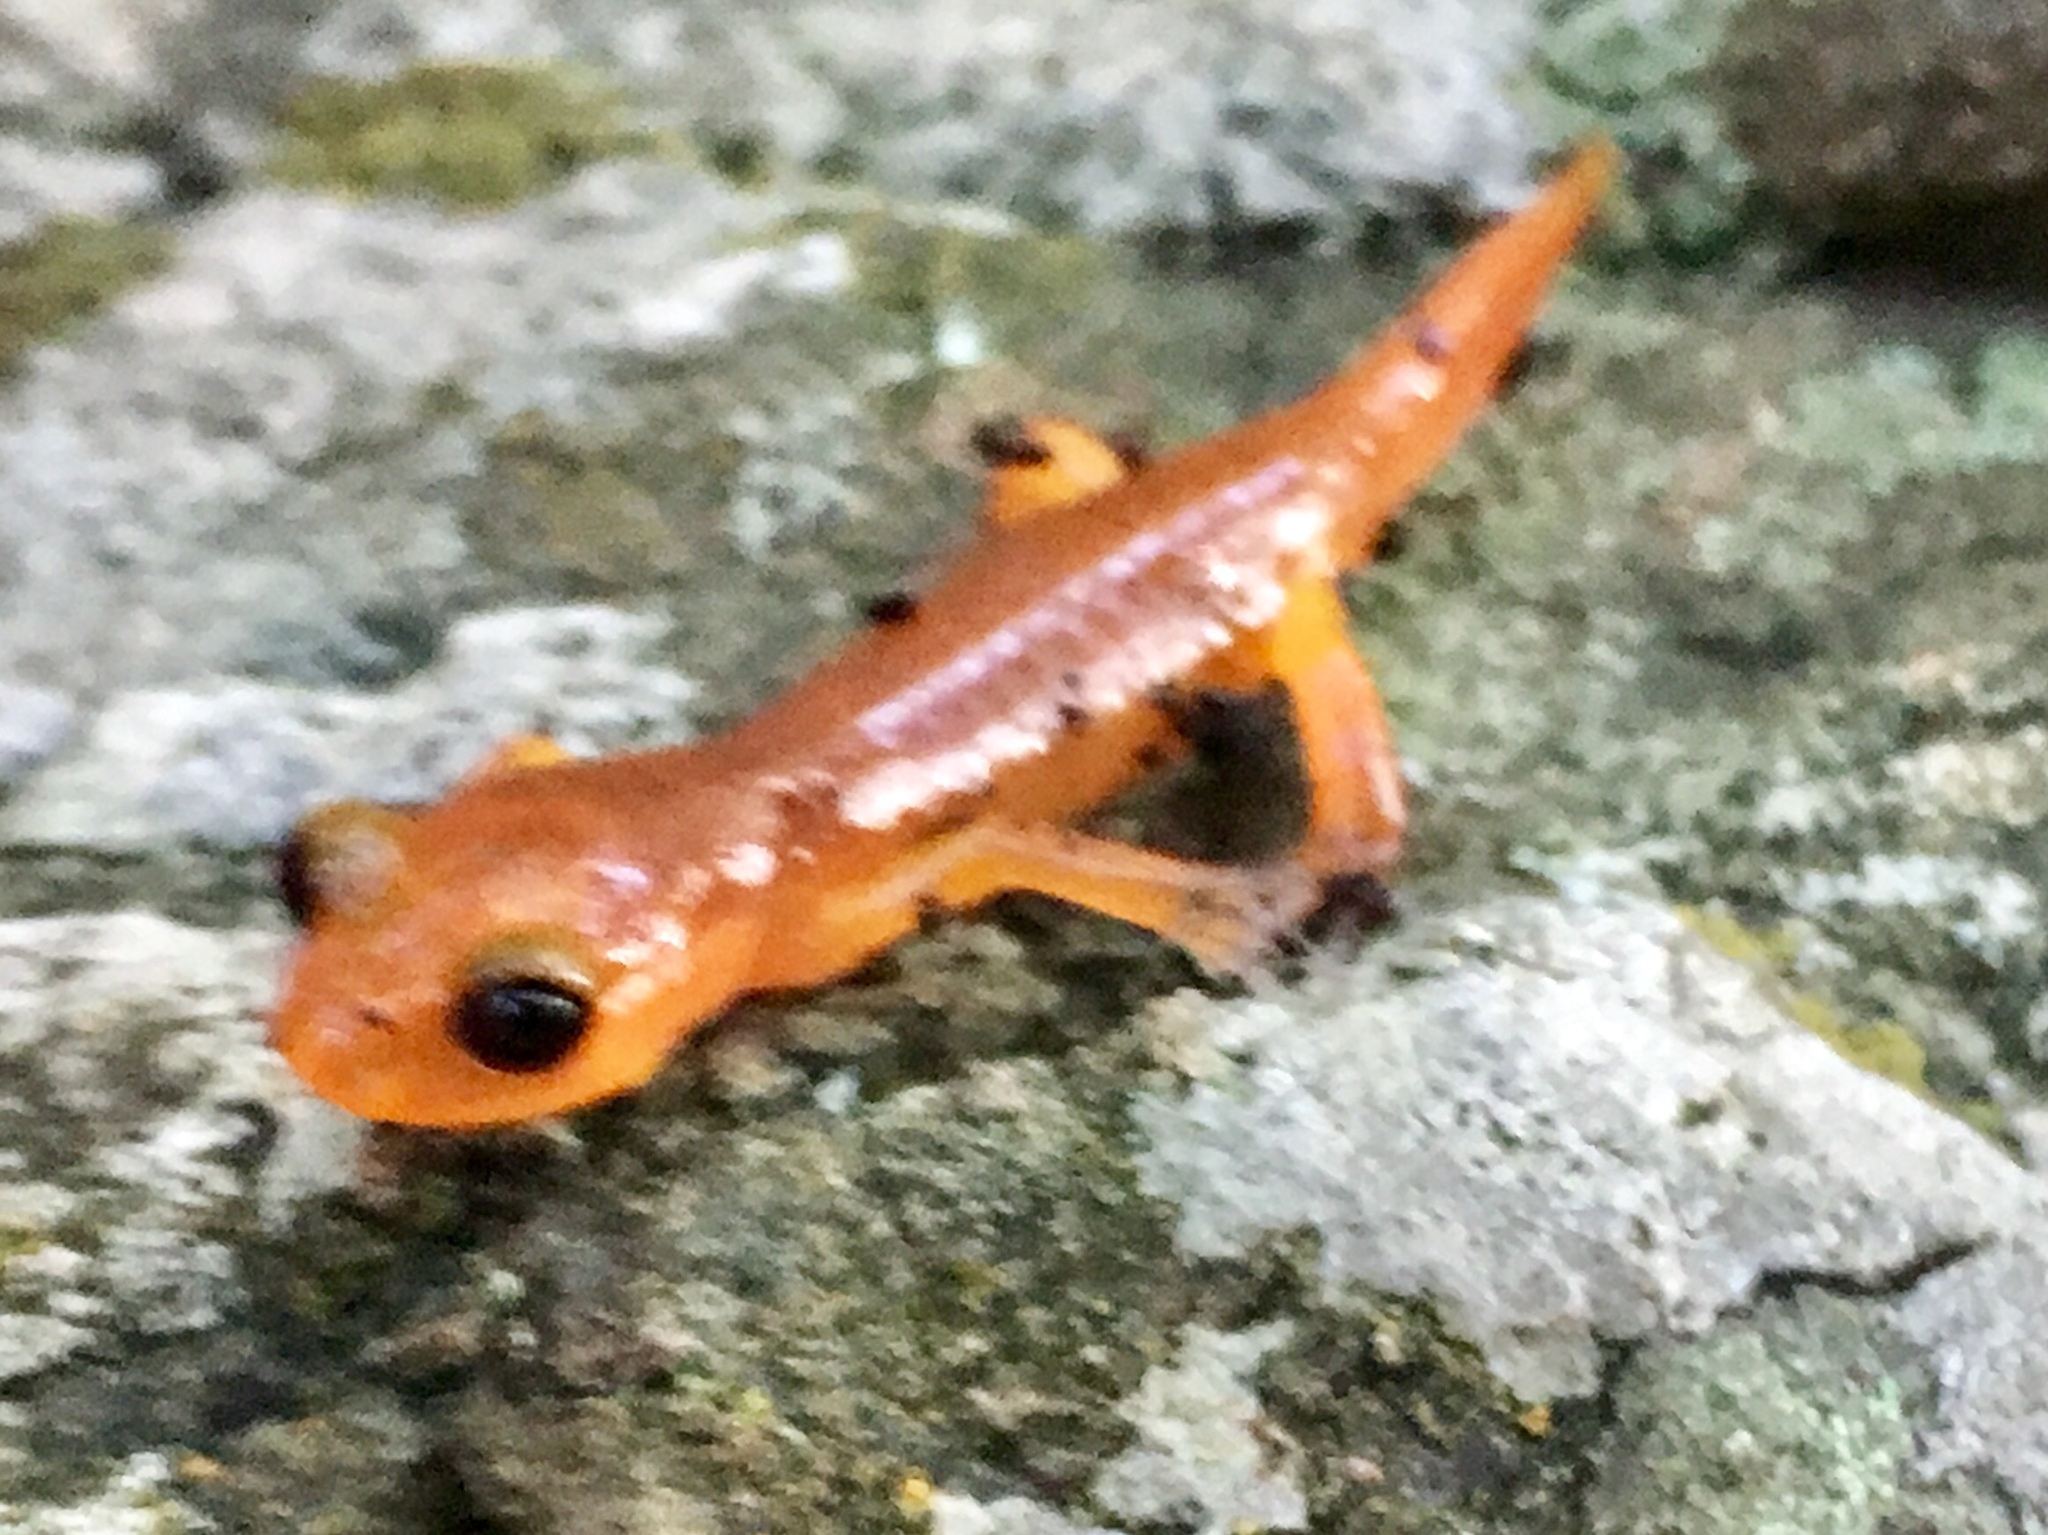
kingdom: Animalia
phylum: Chordata
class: Amphibia
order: Caudata
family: Plethodontidae
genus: Ensatina
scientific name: Ensatina eschscholtzii
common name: Ensatina
